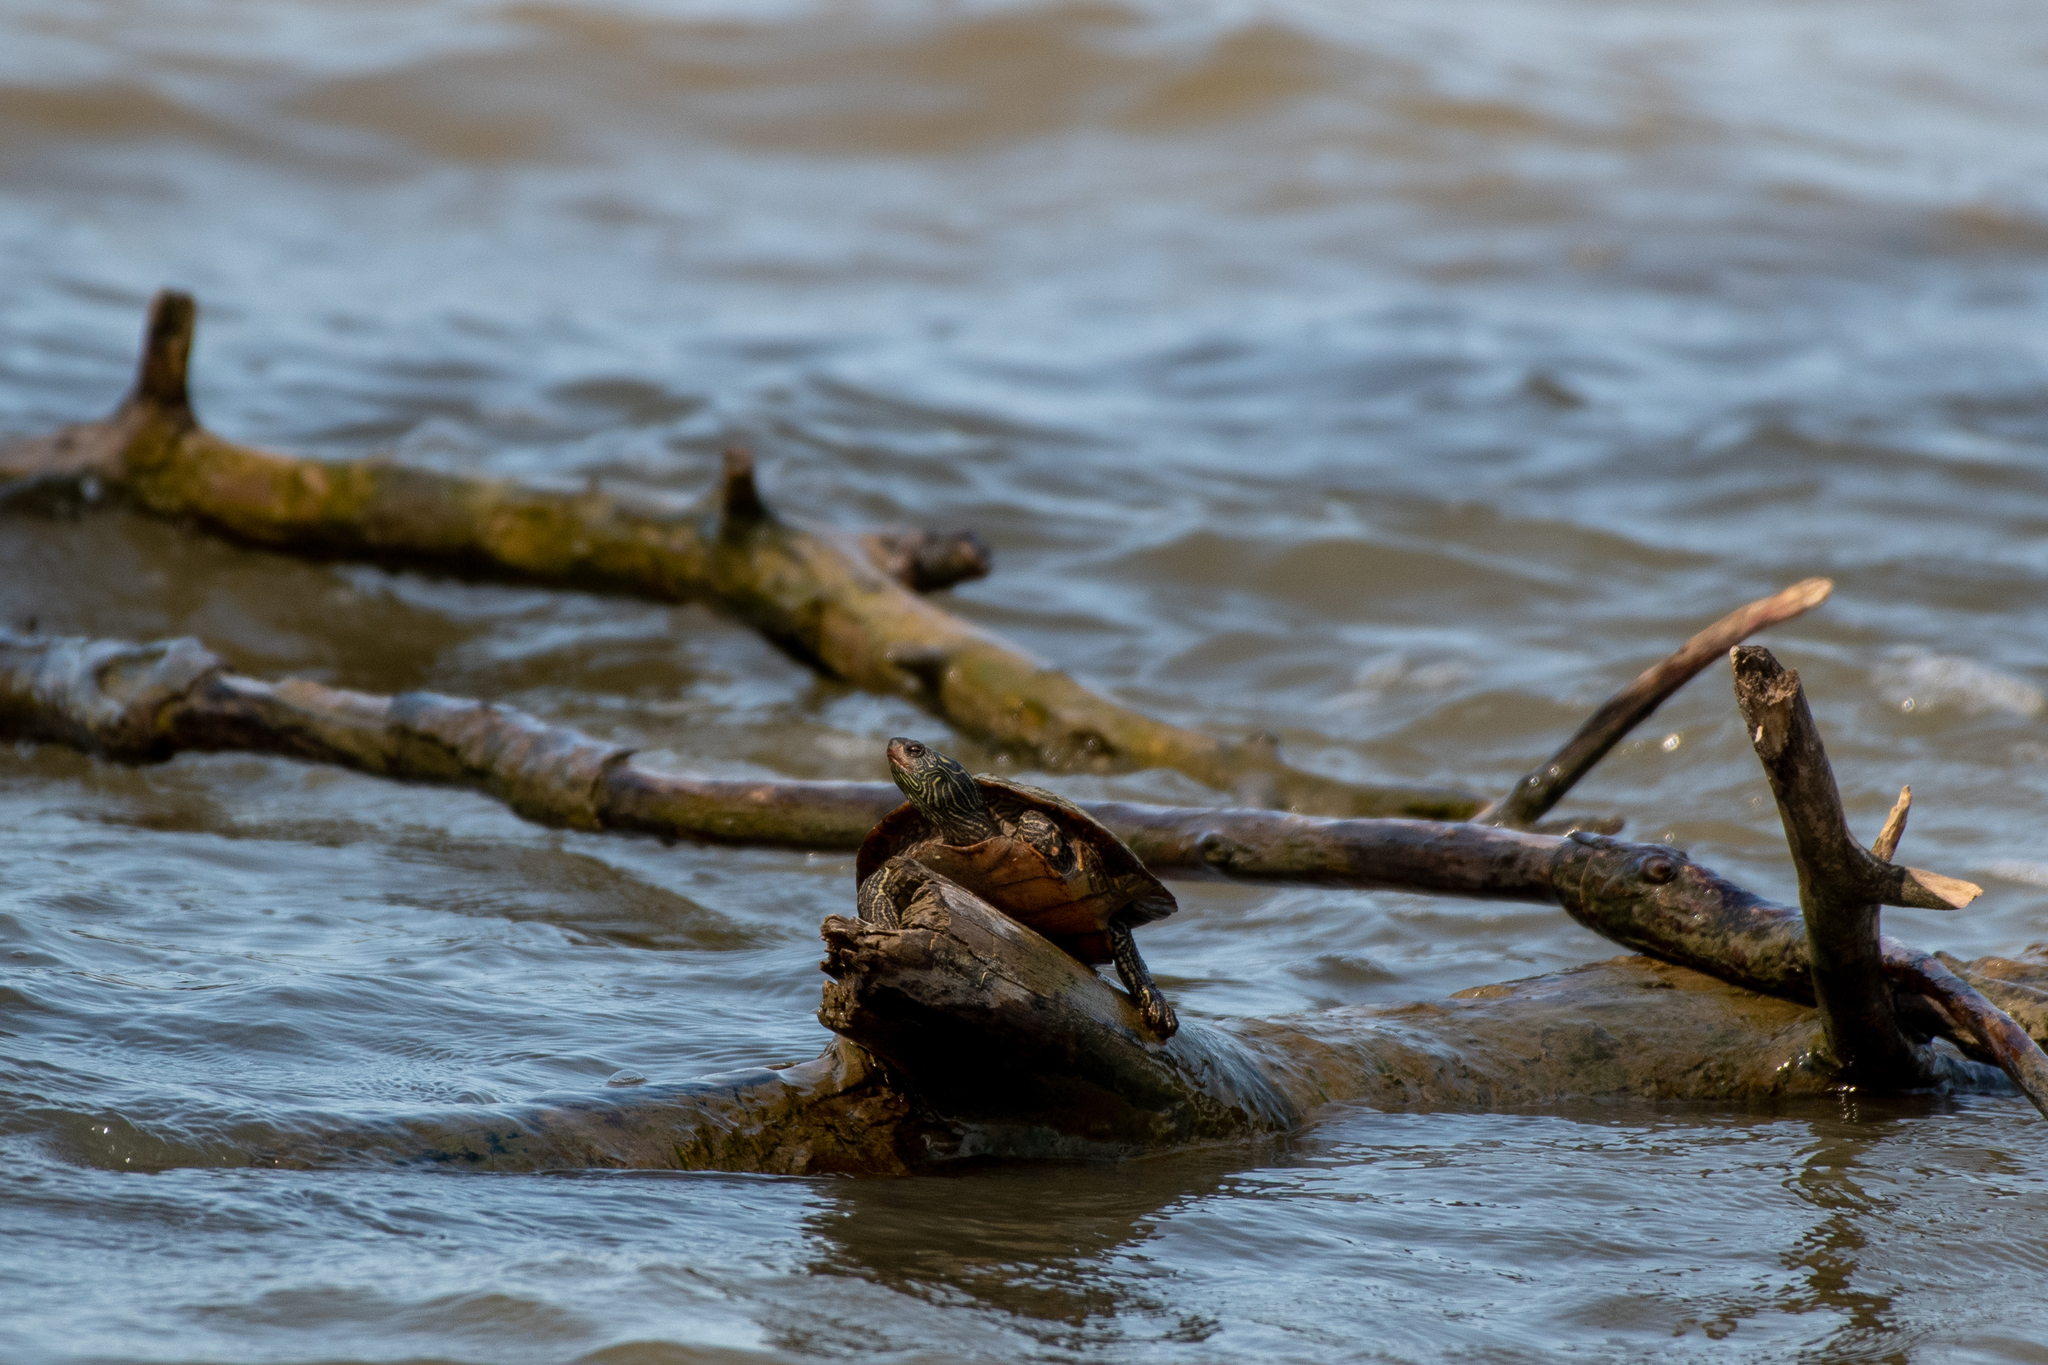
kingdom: Animalia
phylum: Chordata
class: Testudines
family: Emydidae
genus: Graptemys
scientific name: Graptemys geographica
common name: Common map turtle
